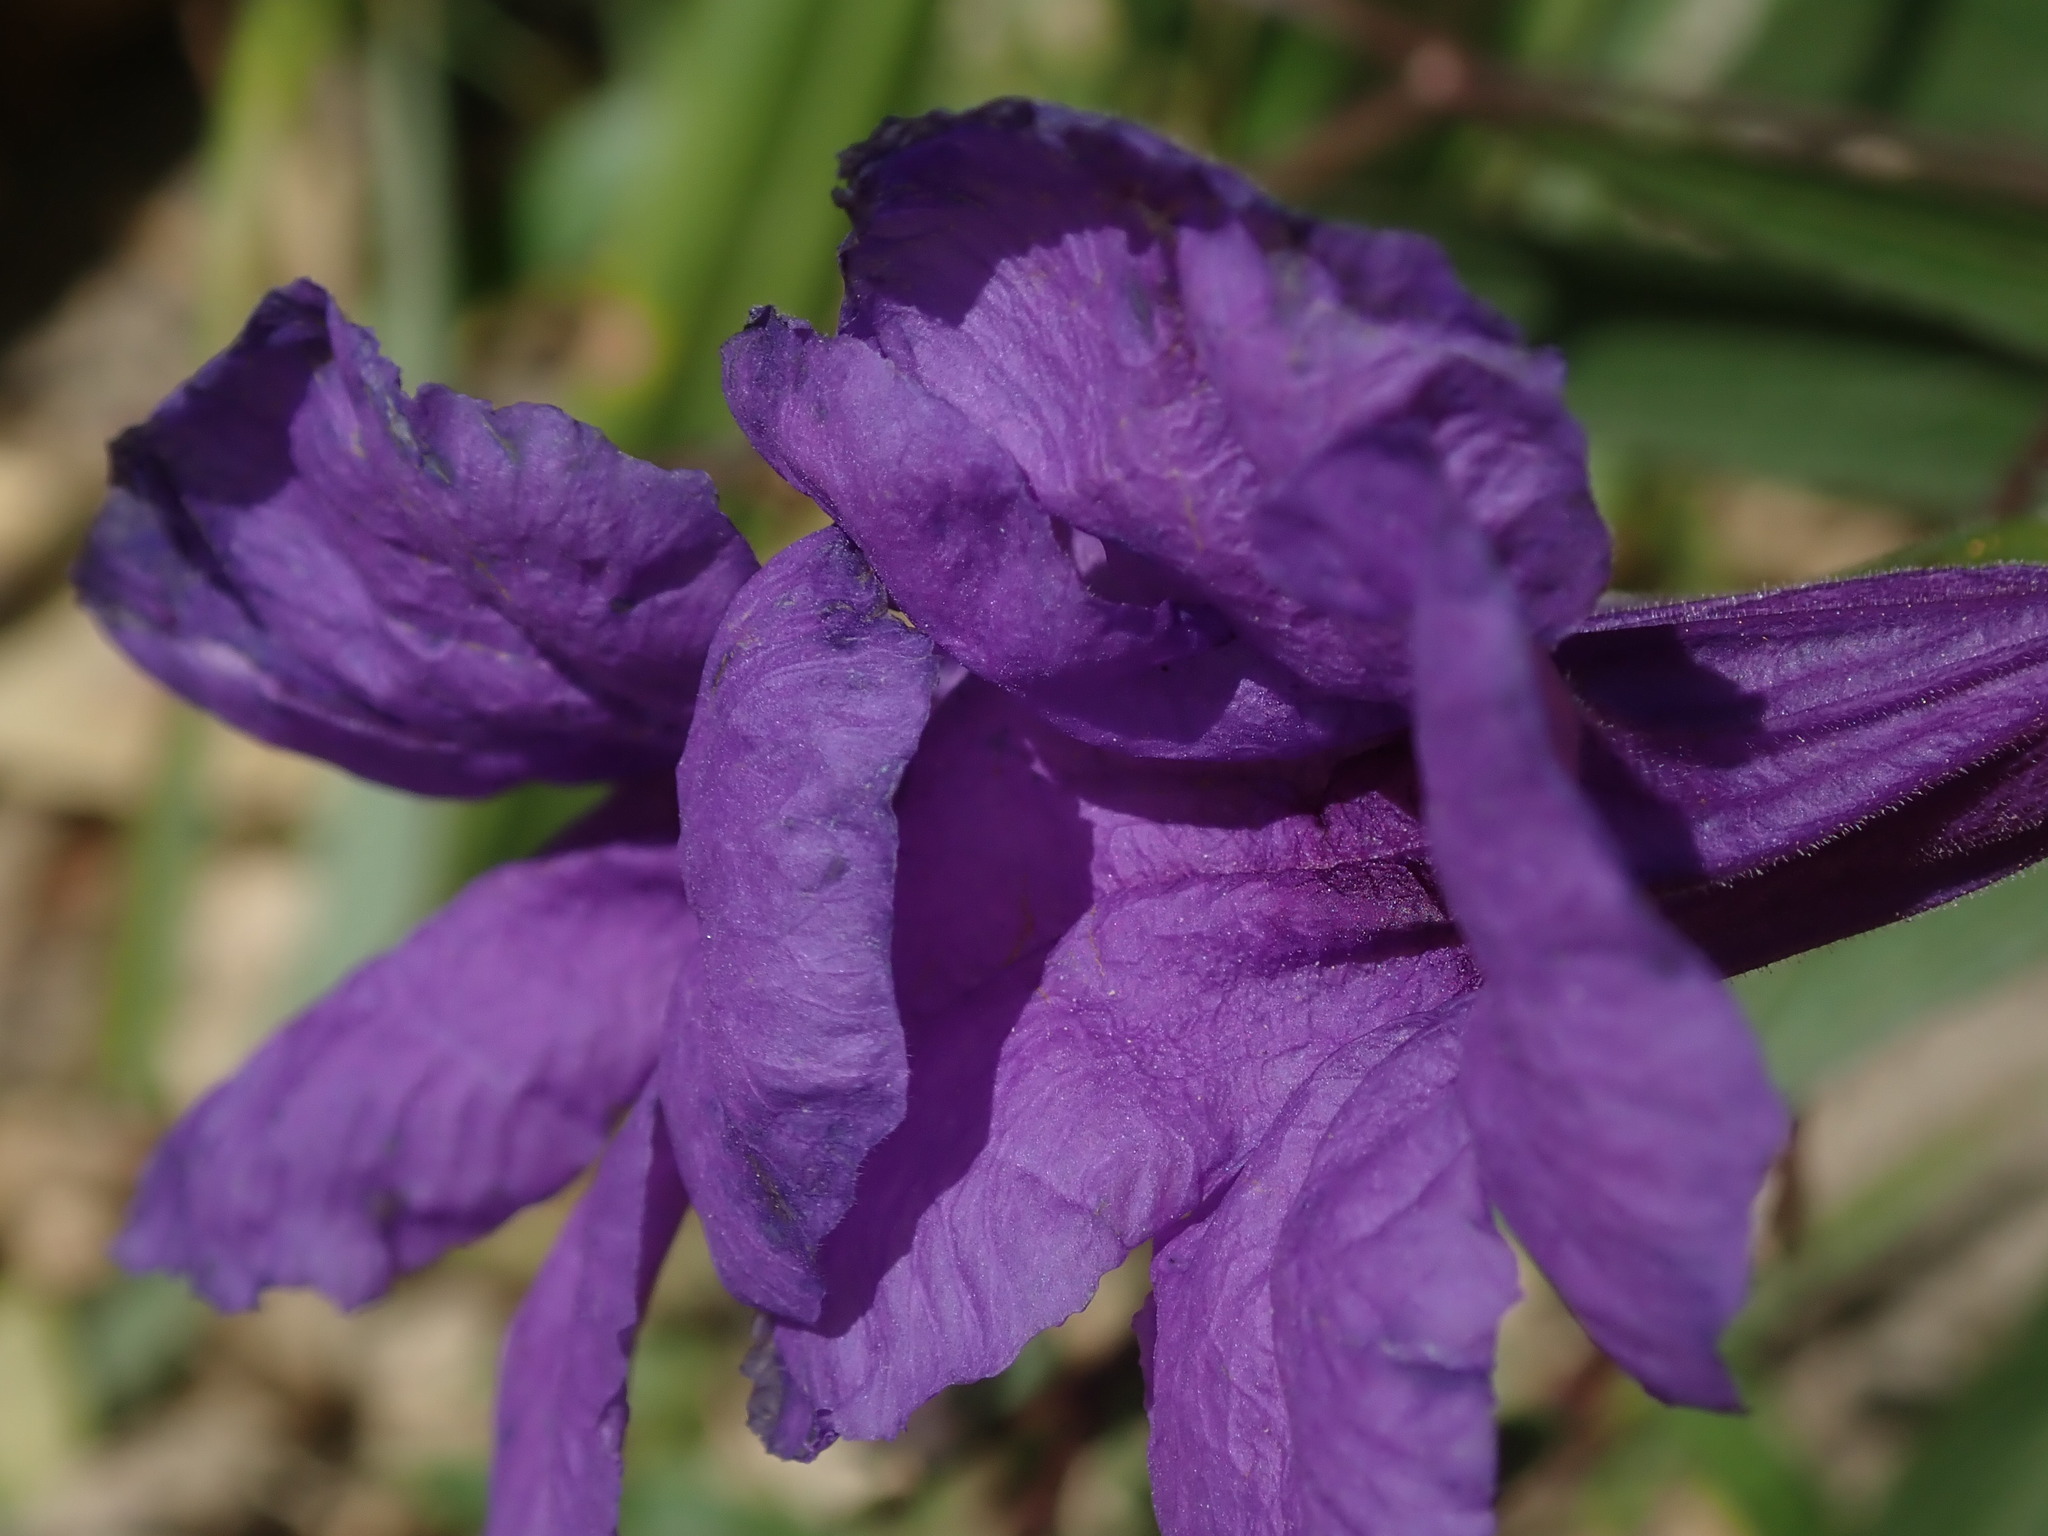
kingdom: Plantae
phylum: Tracheophyta
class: Magnoliopsida
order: Lamiales
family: Acanthaceae
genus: Ruellia
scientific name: Ruellia simplex
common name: Softseed wild petunia
